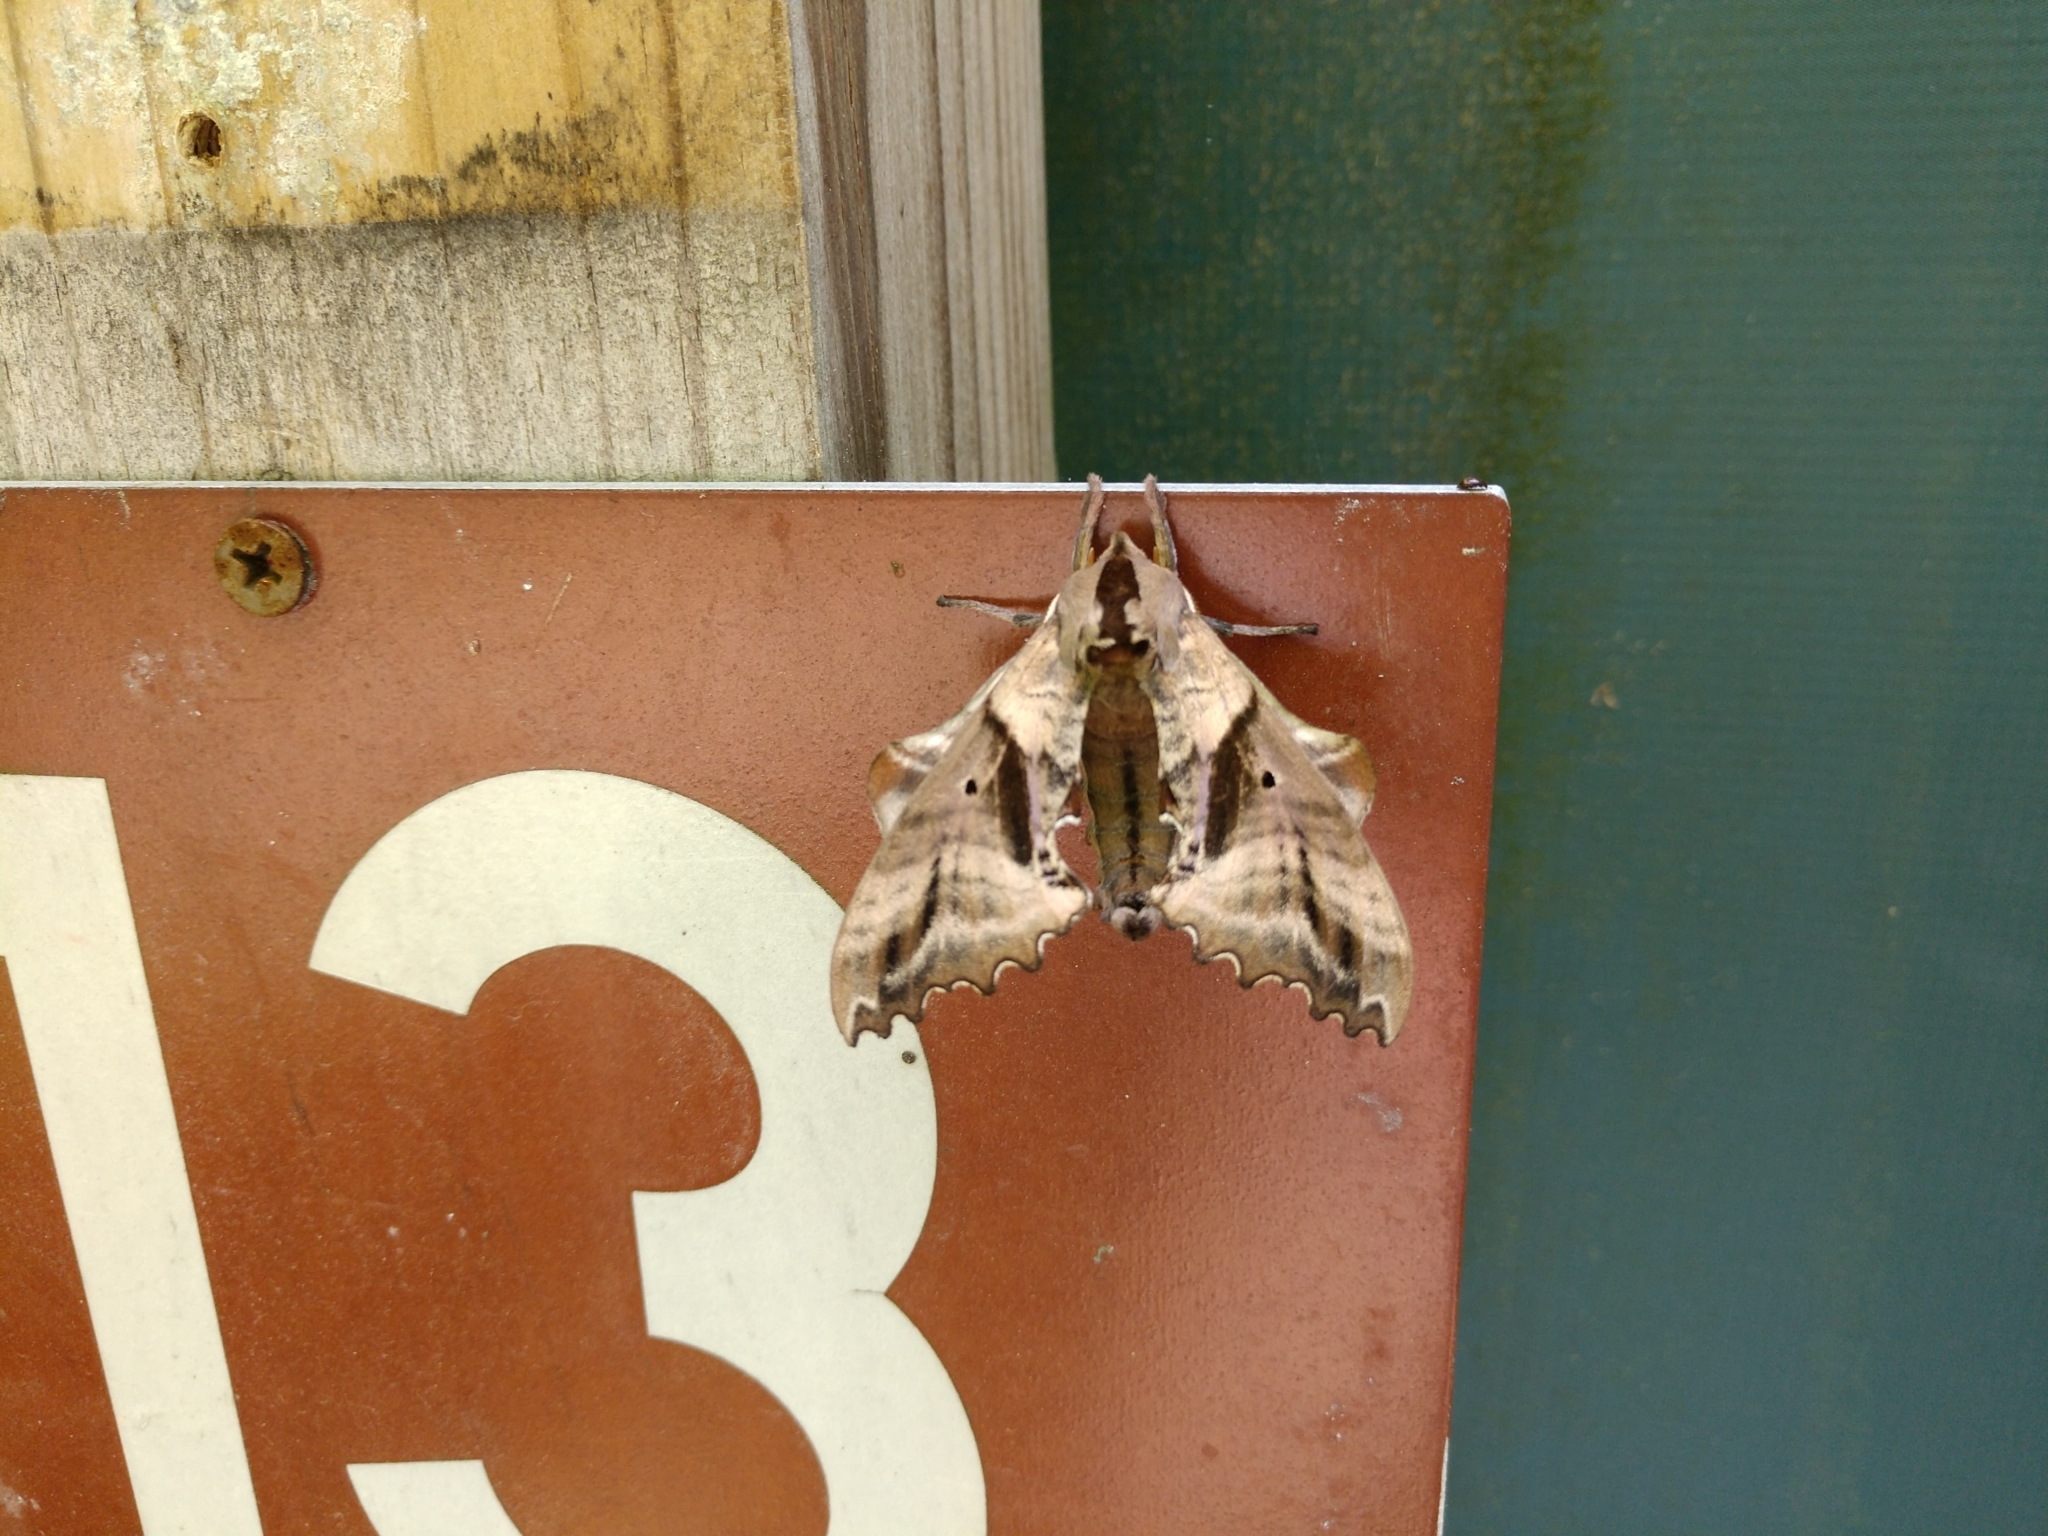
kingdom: Animalia
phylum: Arthropoda
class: Insecta
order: Lepidoptera
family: Sphingidae
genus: Paonias
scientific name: Paonias excaecata
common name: Blind-eyed sphinx
